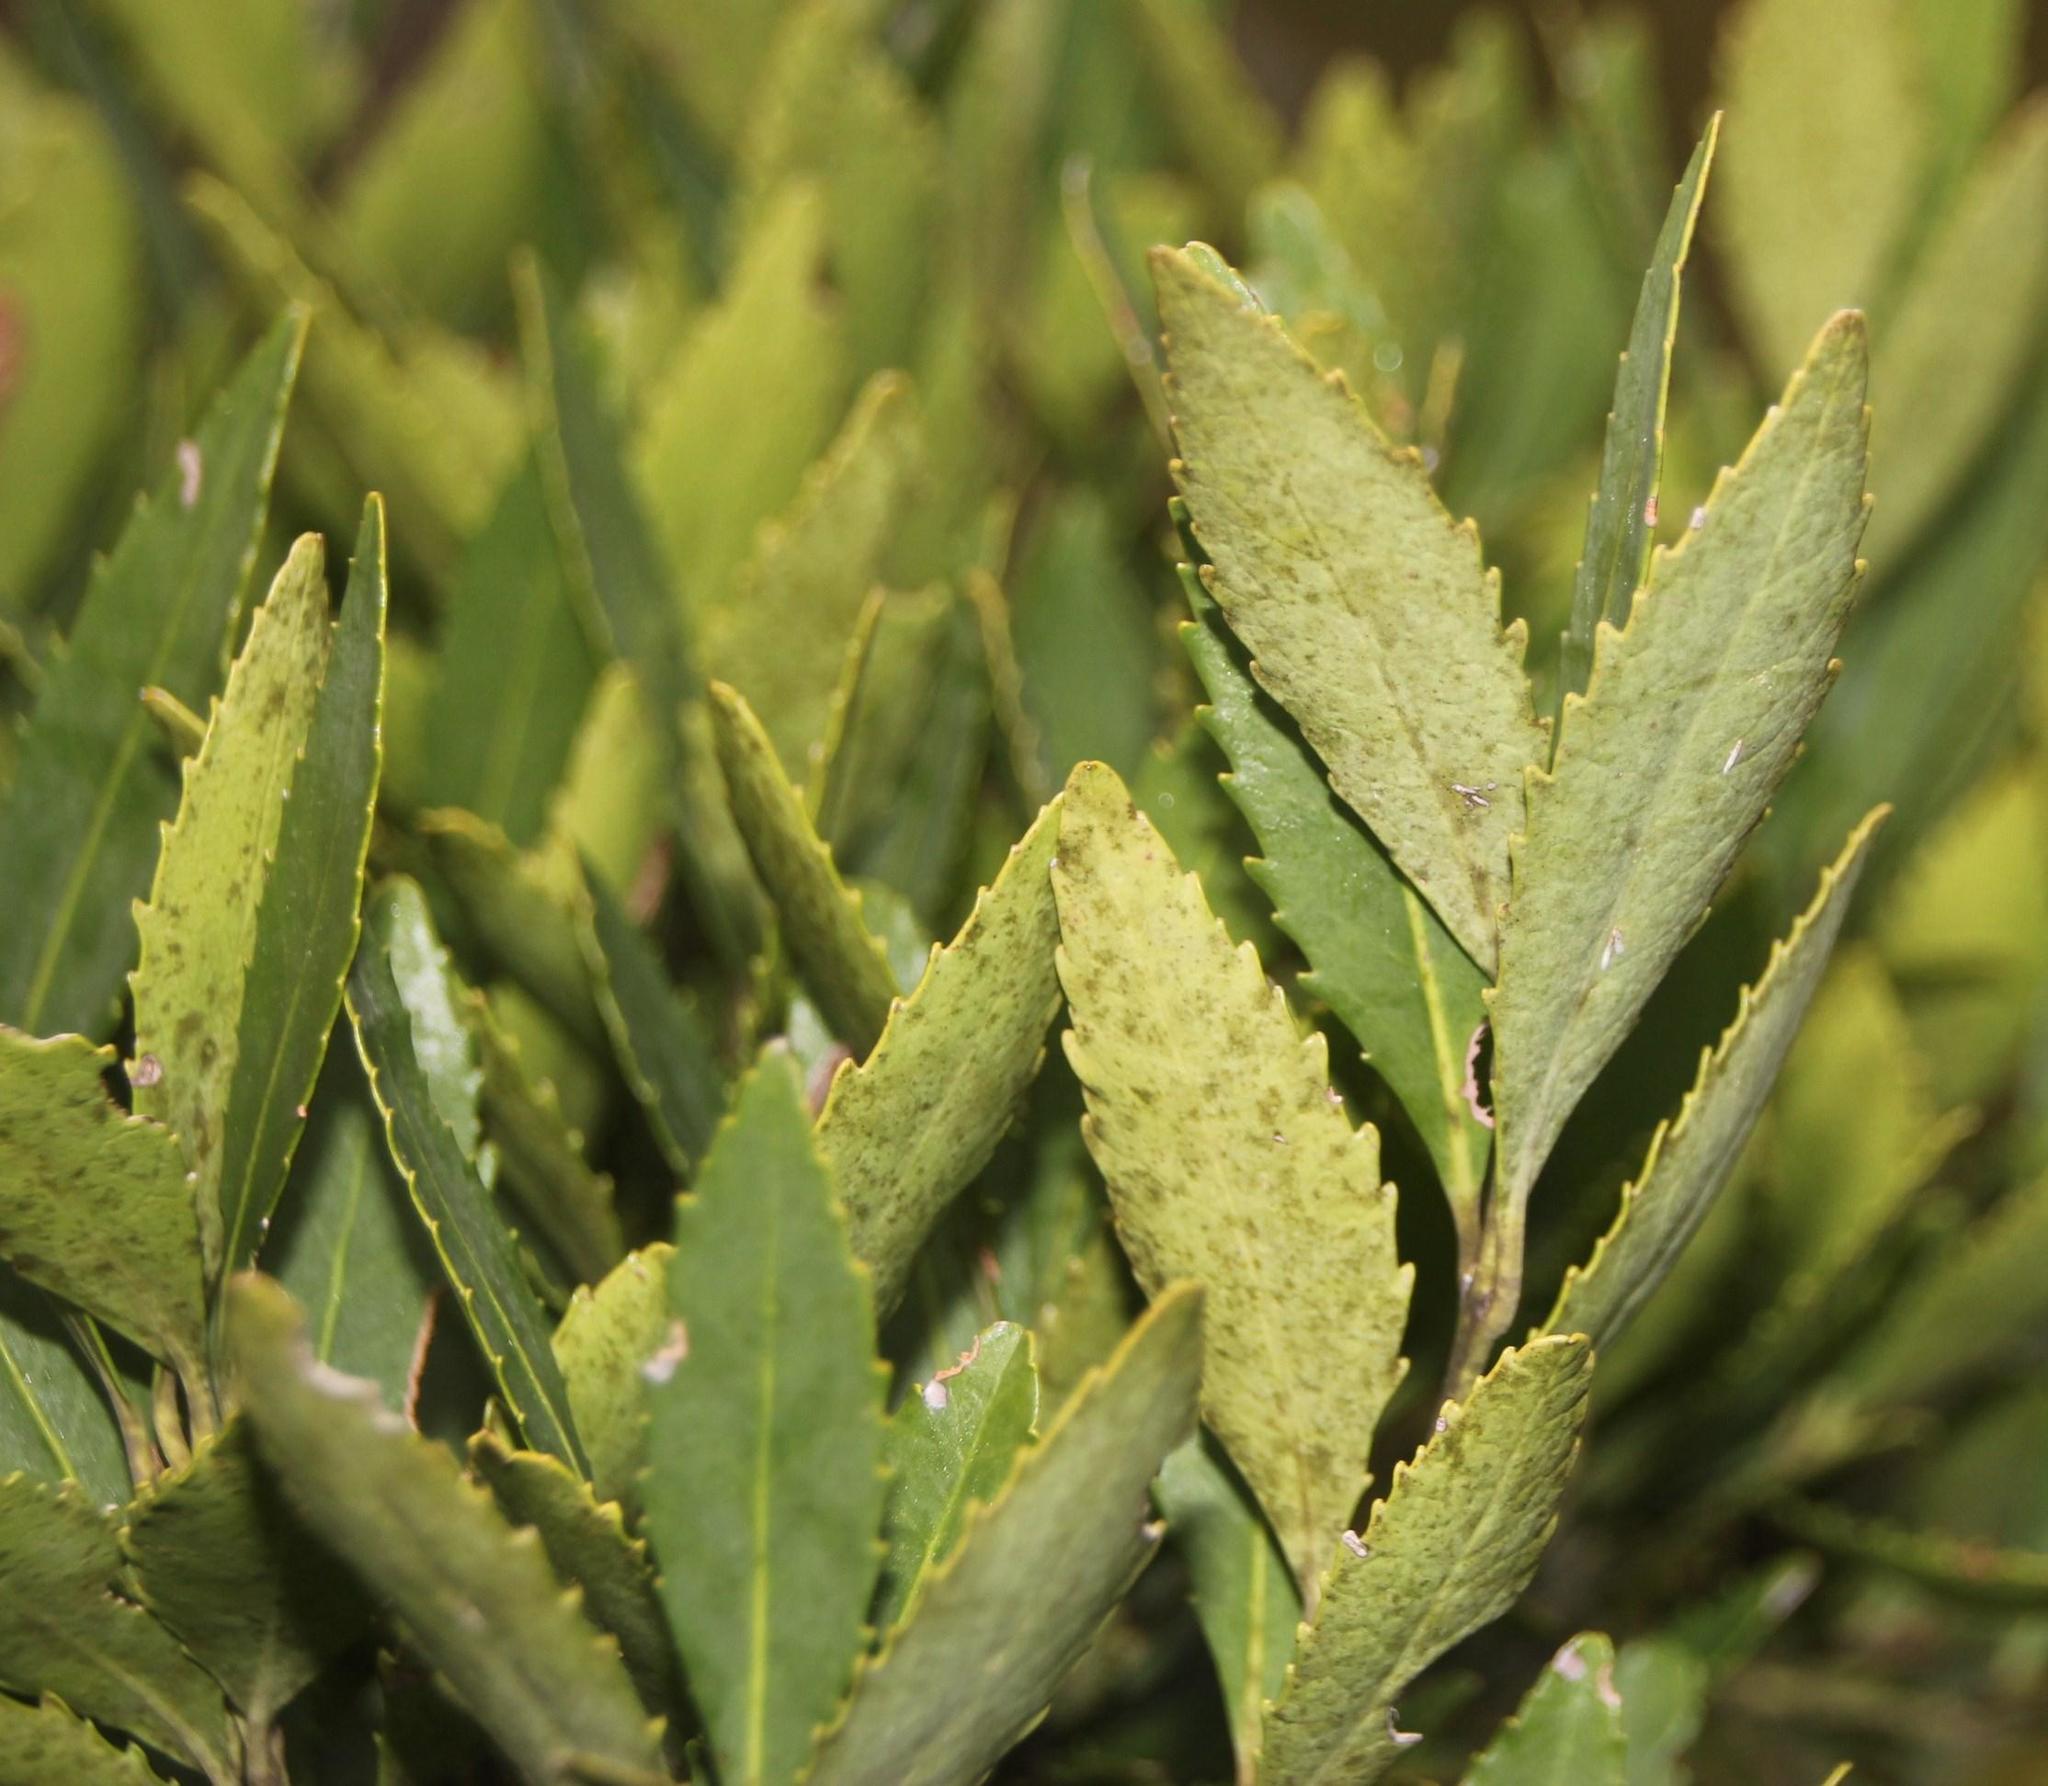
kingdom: Plantae
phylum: Tracheophyta
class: Magnoliopsida
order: Sapindales
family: Anacardiaceae
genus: Laurophyllus
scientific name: Laurophyllus capensis
